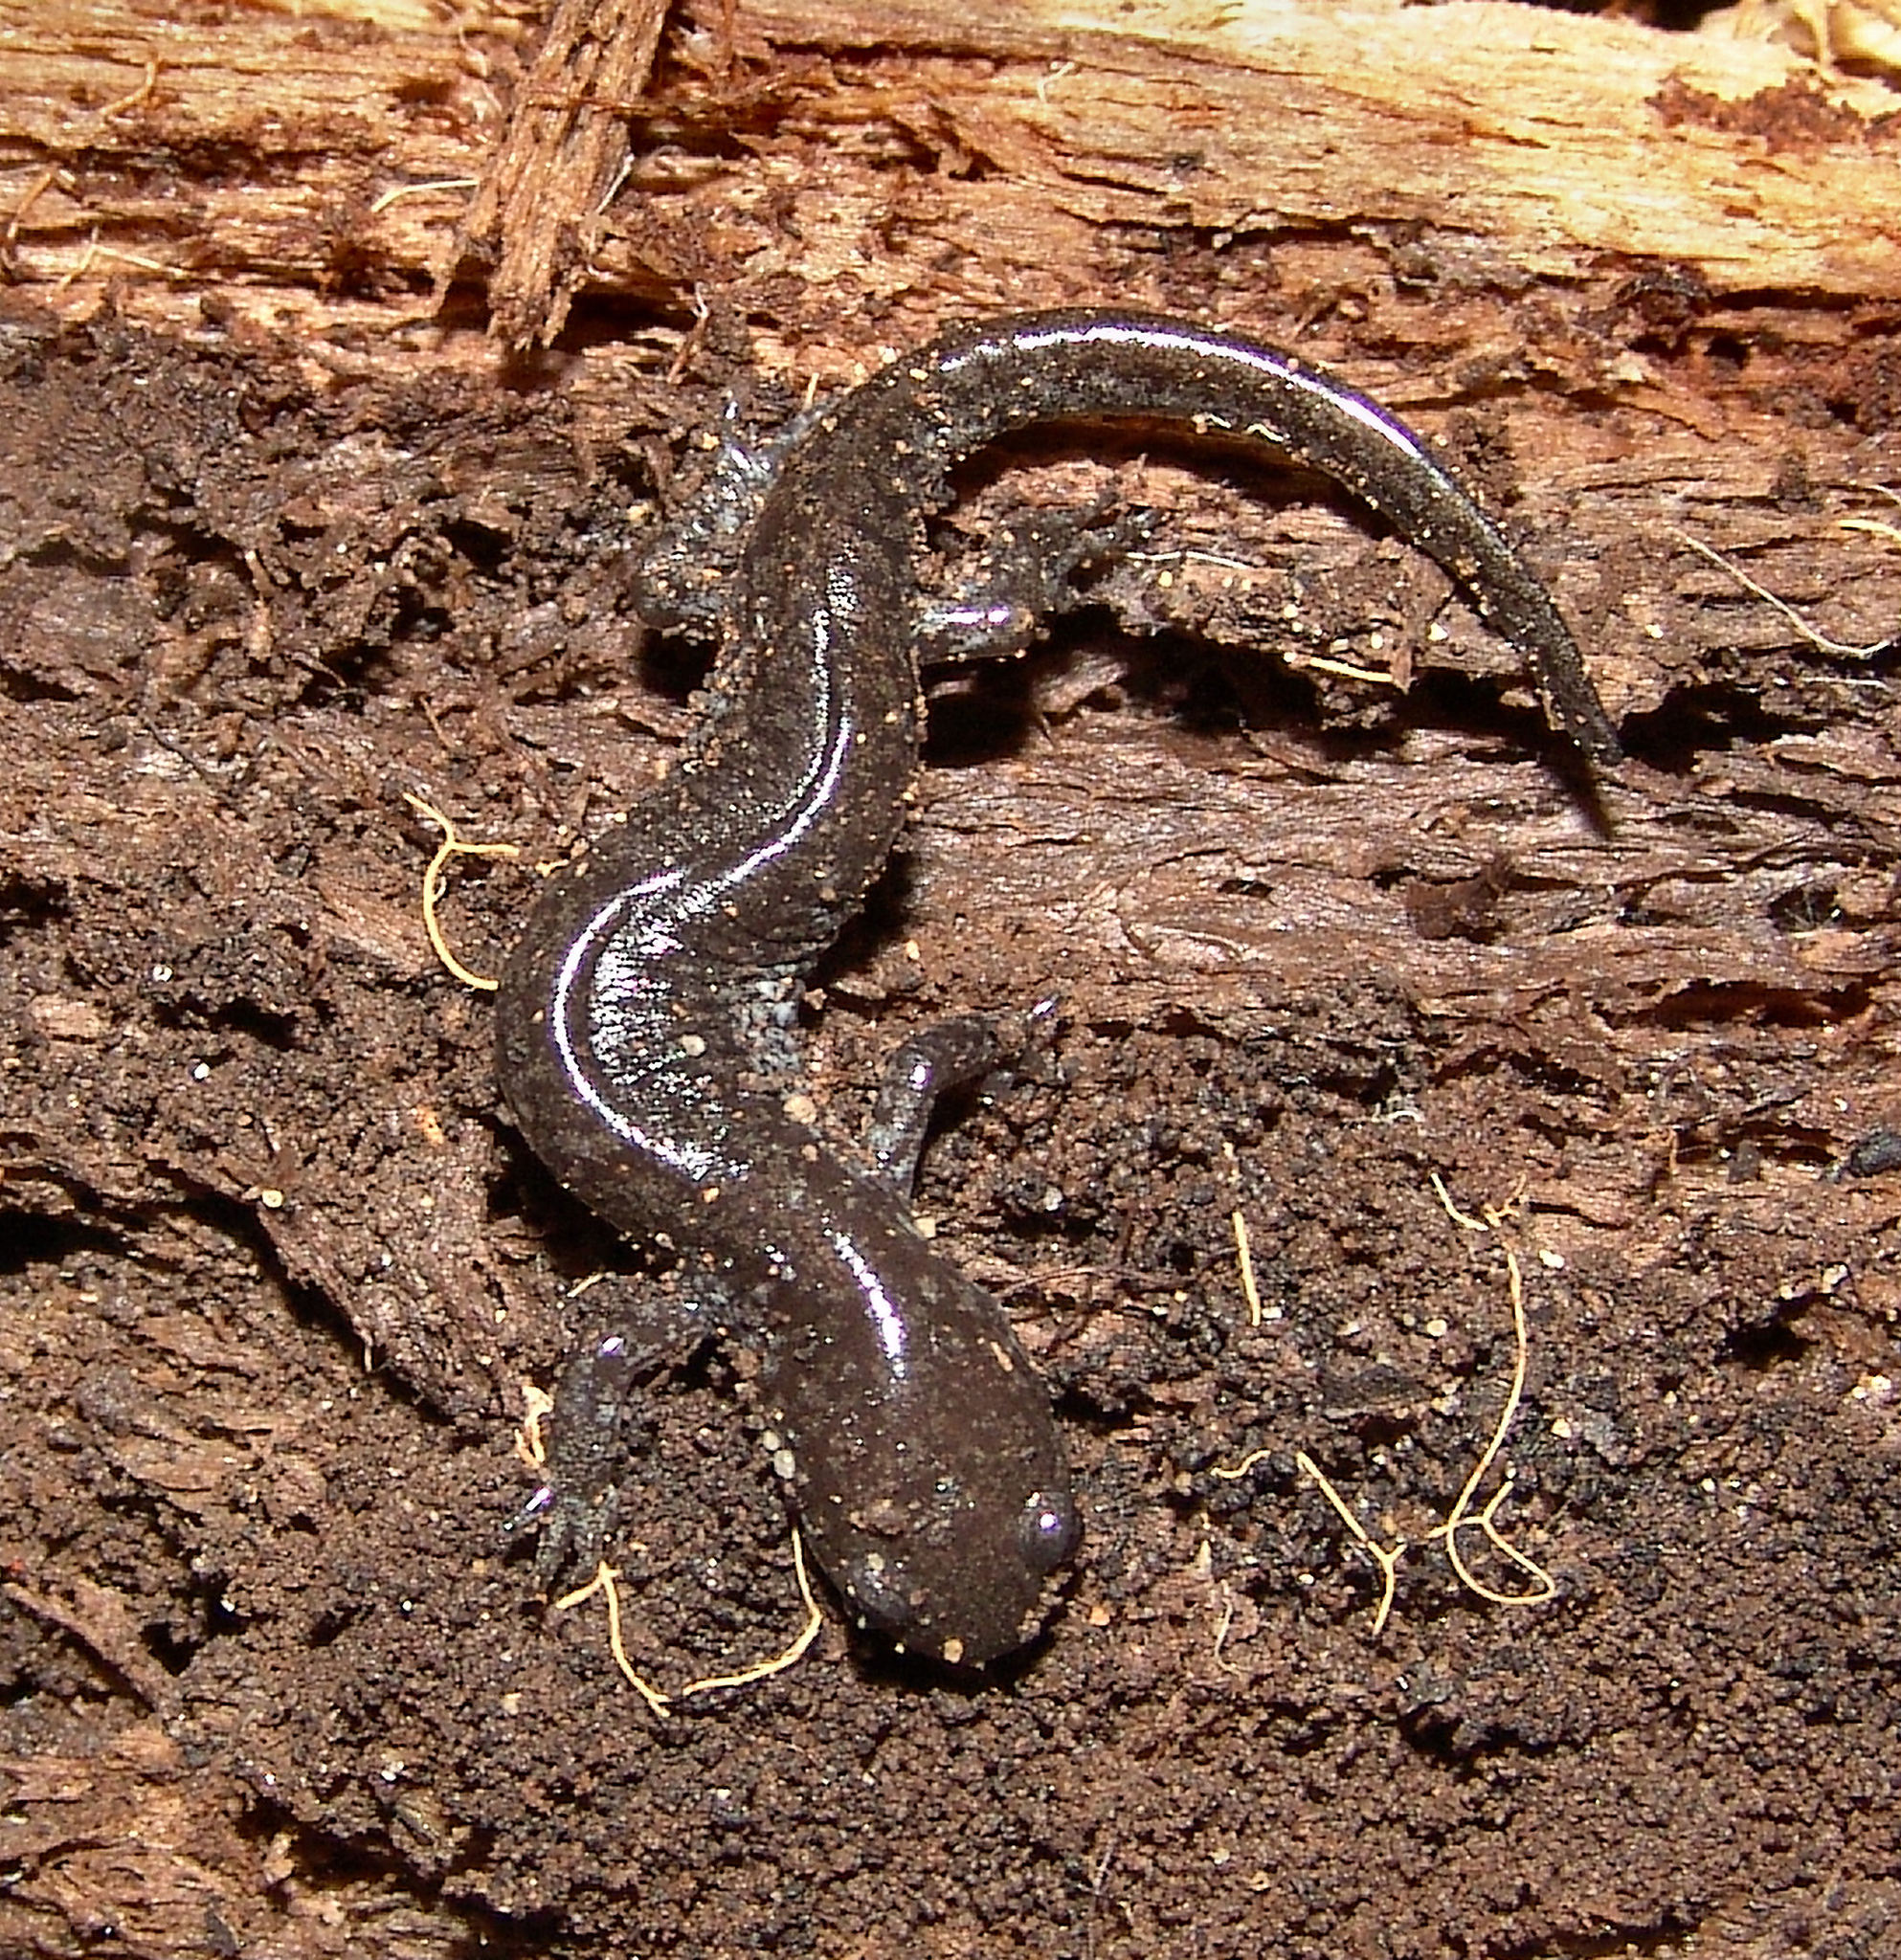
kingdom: Animalia
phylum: Chordata
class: Amphibia
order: Caudata
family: Ambystomatidae
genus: Ambystoma
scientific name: Ambystoma texanum
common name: Small-mouth salamander
